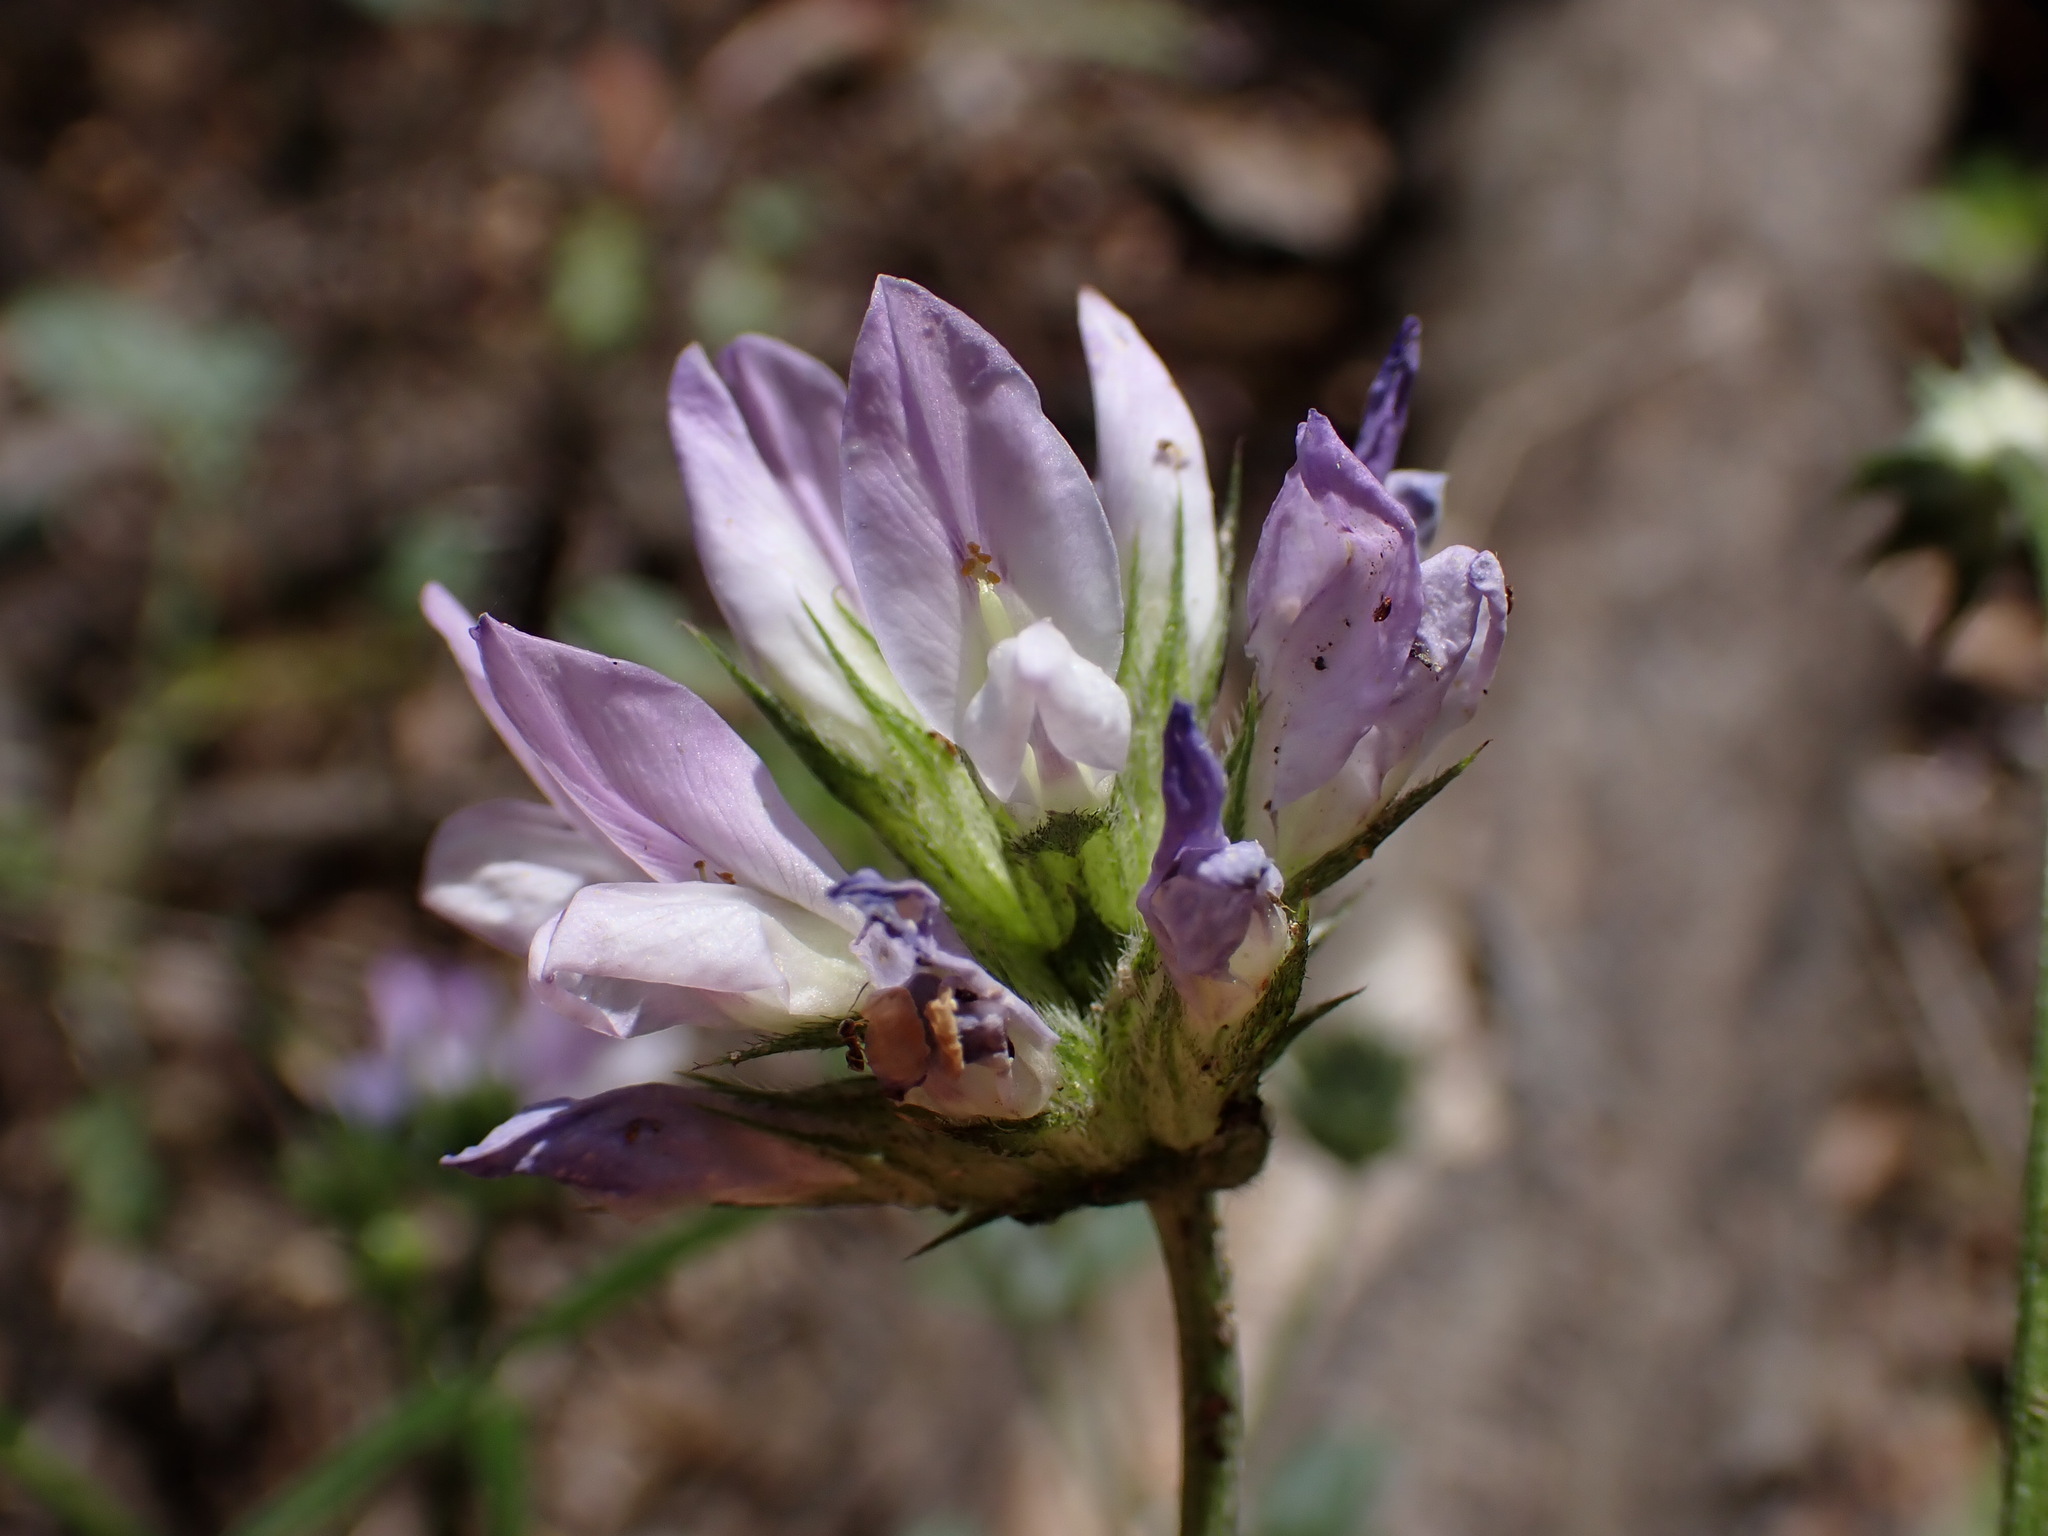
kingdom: Plantae
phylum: Tracheophyta
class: Magnoliopsida
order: Fabales
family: Fabaceae
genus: Bituminaria
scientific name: Bituminaria bituminosa
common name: Arabian pea
